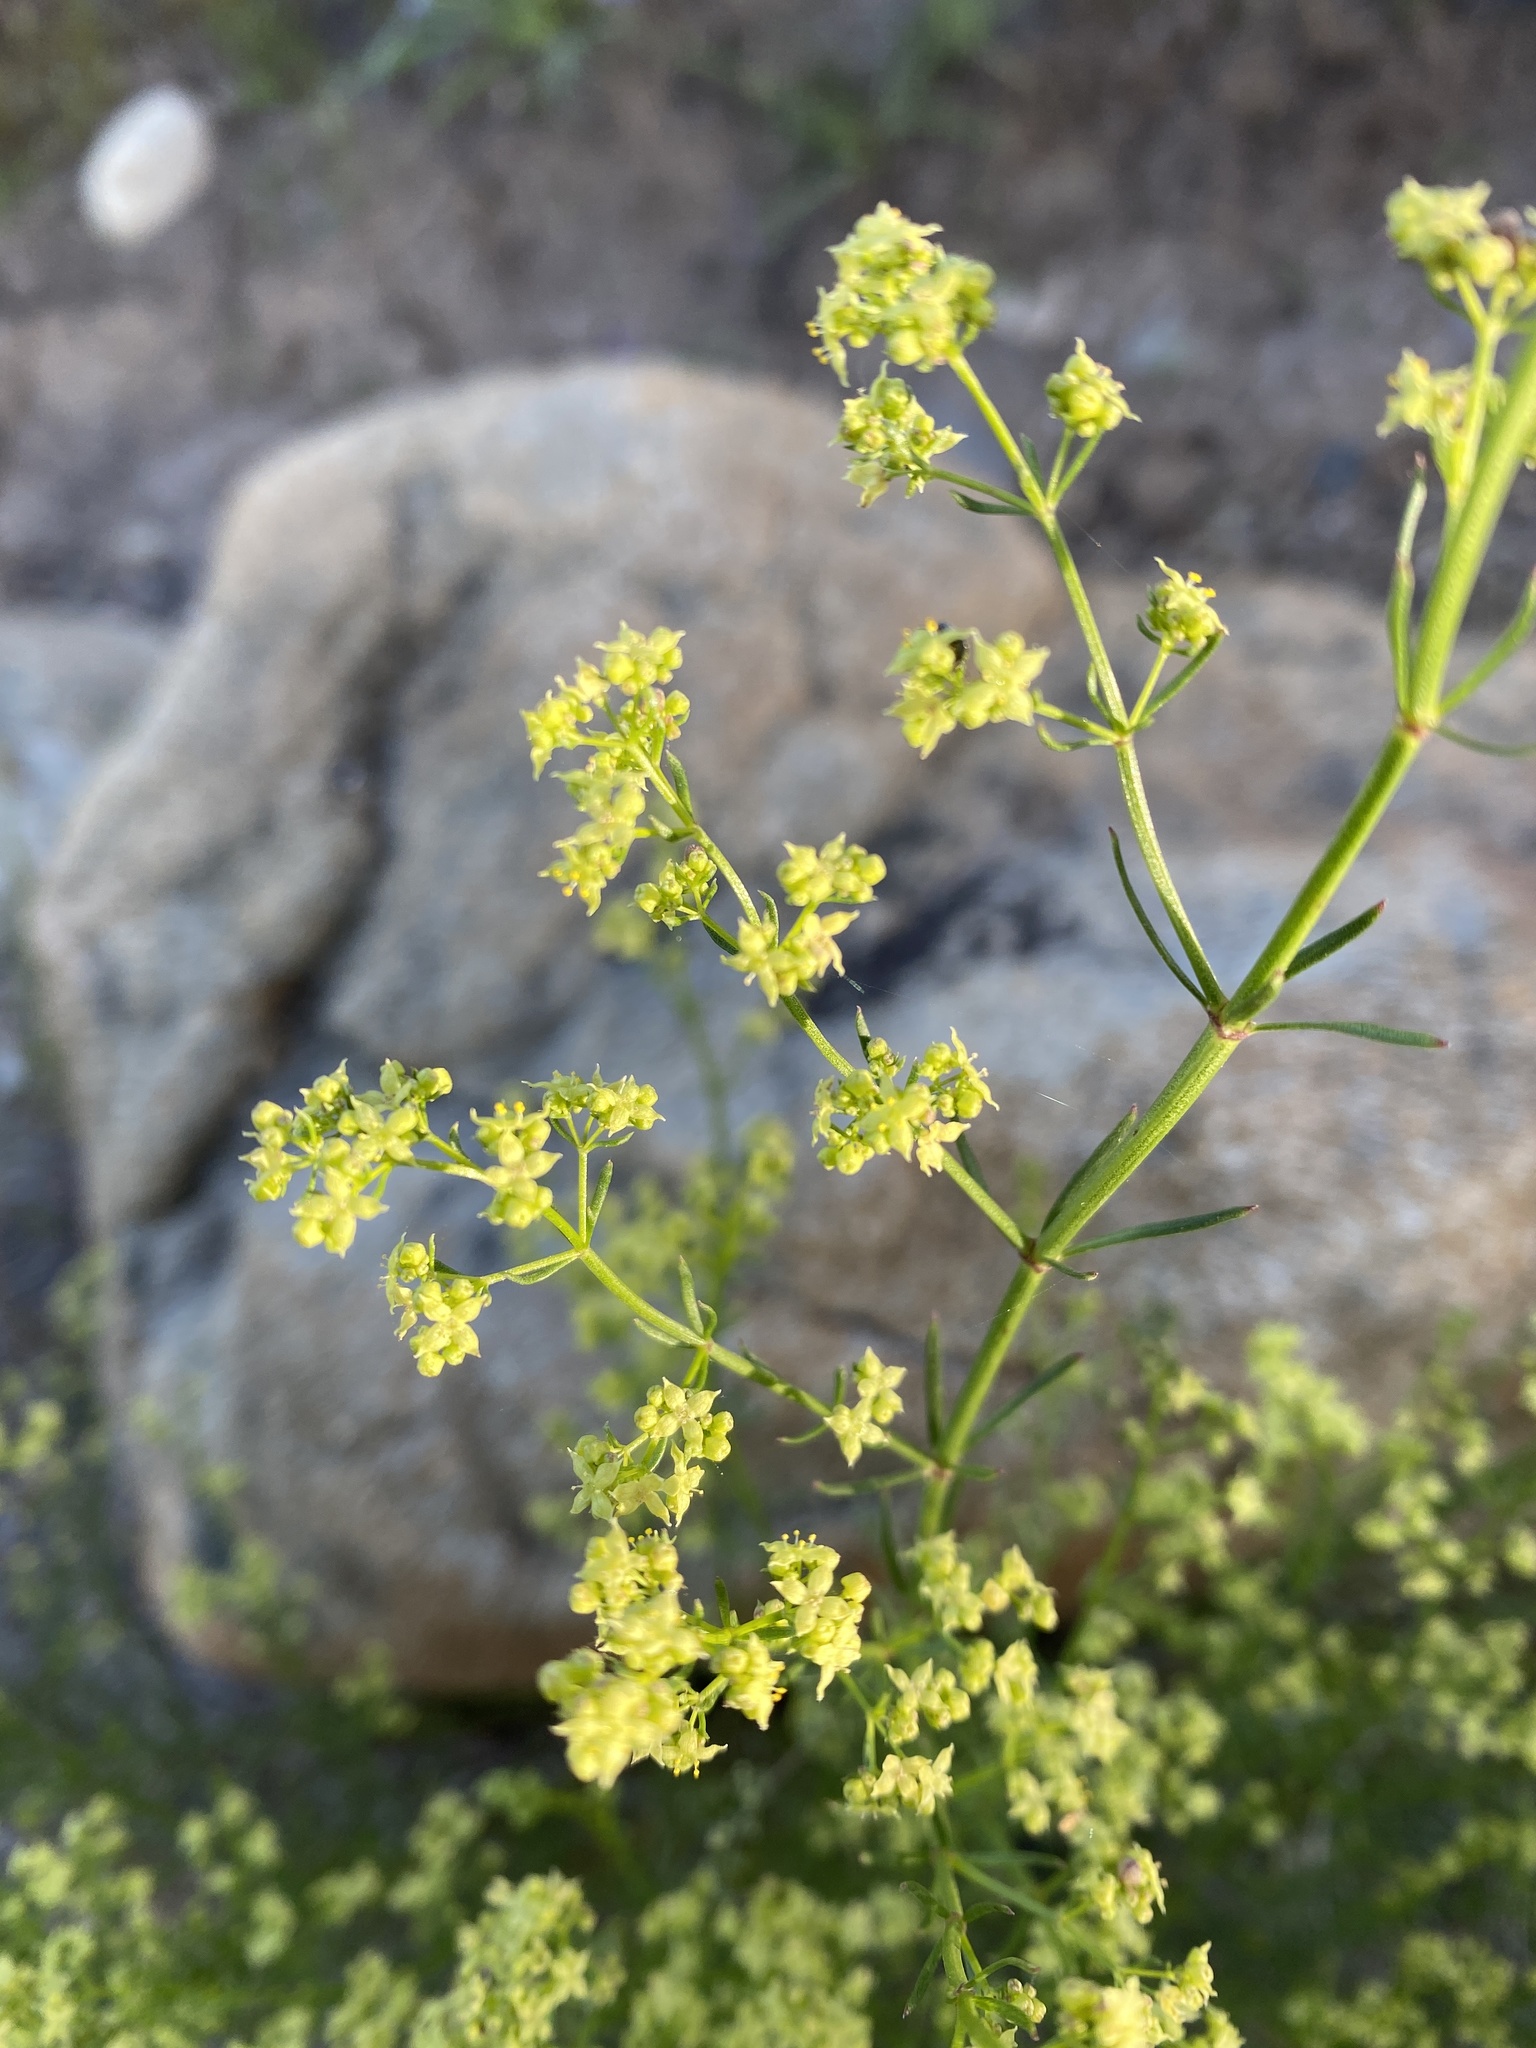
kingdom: Plantae
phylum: Tracheophyta
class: Magnoliopsida
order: Gentianales
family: Rubiaceae
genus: Galium
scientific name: Galium angustifolium
